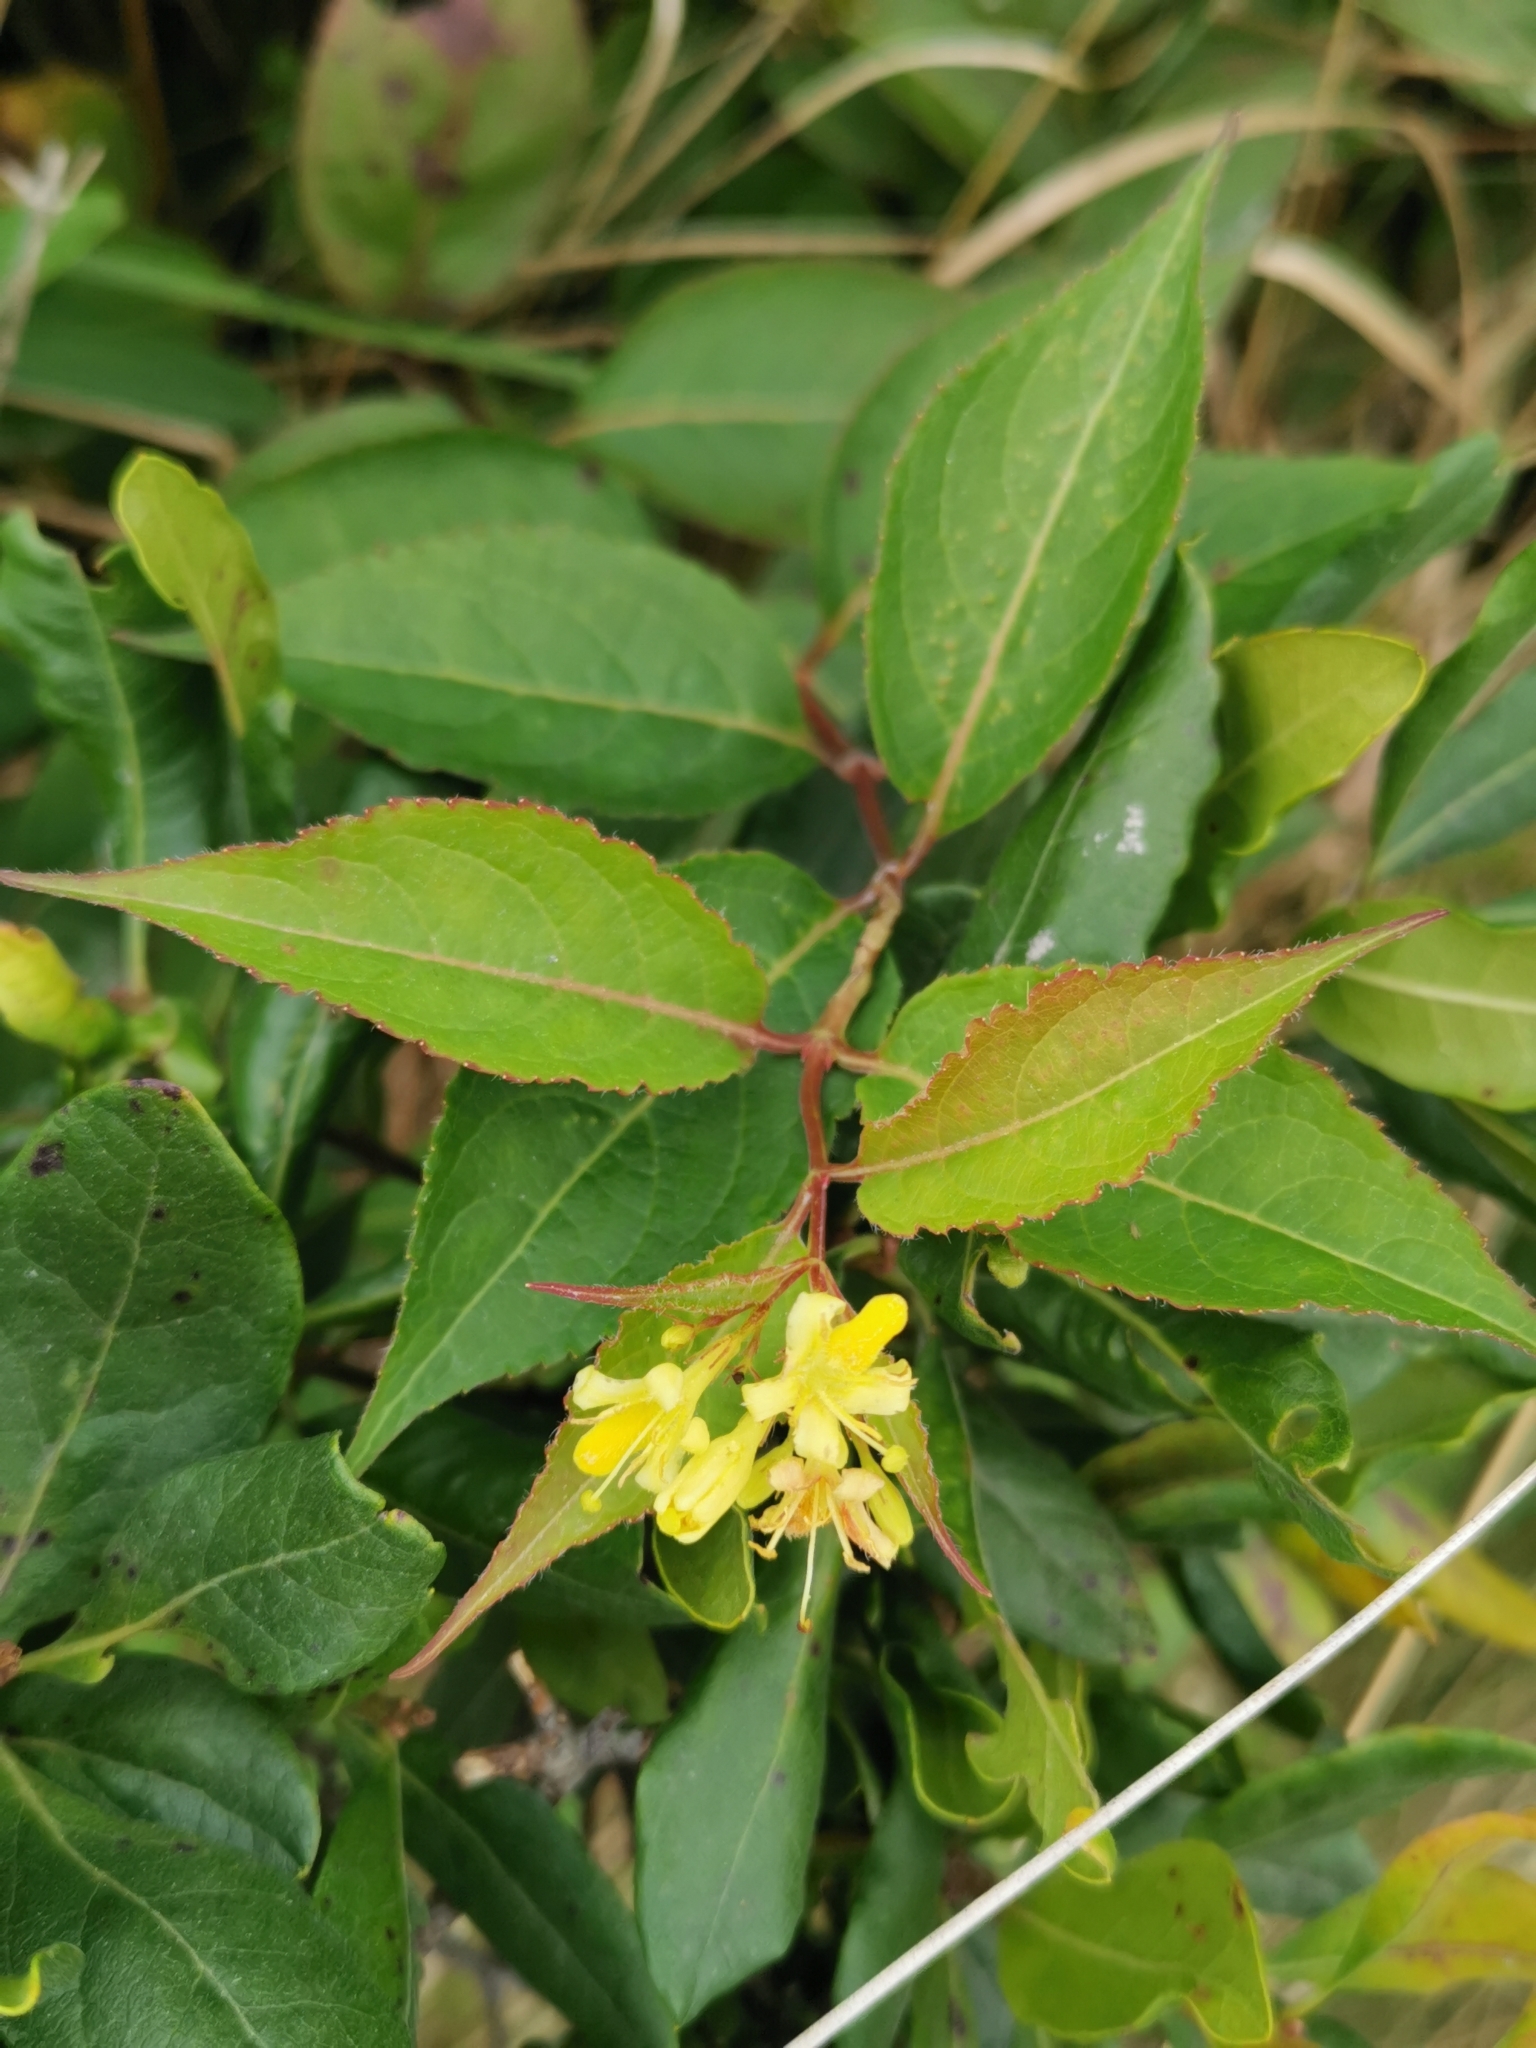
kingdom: Plantae
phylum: Tracheophyta
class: Magnoliopsida
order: Dipsacales
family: Caprifoliaceae
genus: Diervilla
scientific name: Diervilla lonicera
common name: Bush-honeysuckle
